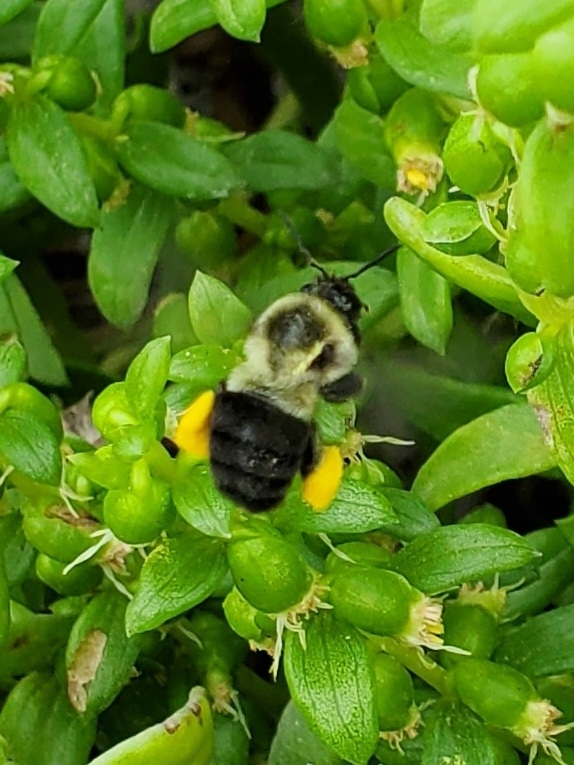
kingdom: Animalia
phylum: Arthropoda
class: Insecta
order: Hymenoptera
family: Apidae
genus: Bombus
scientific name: Bombus impatiens
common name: Common eastern bumble bee
